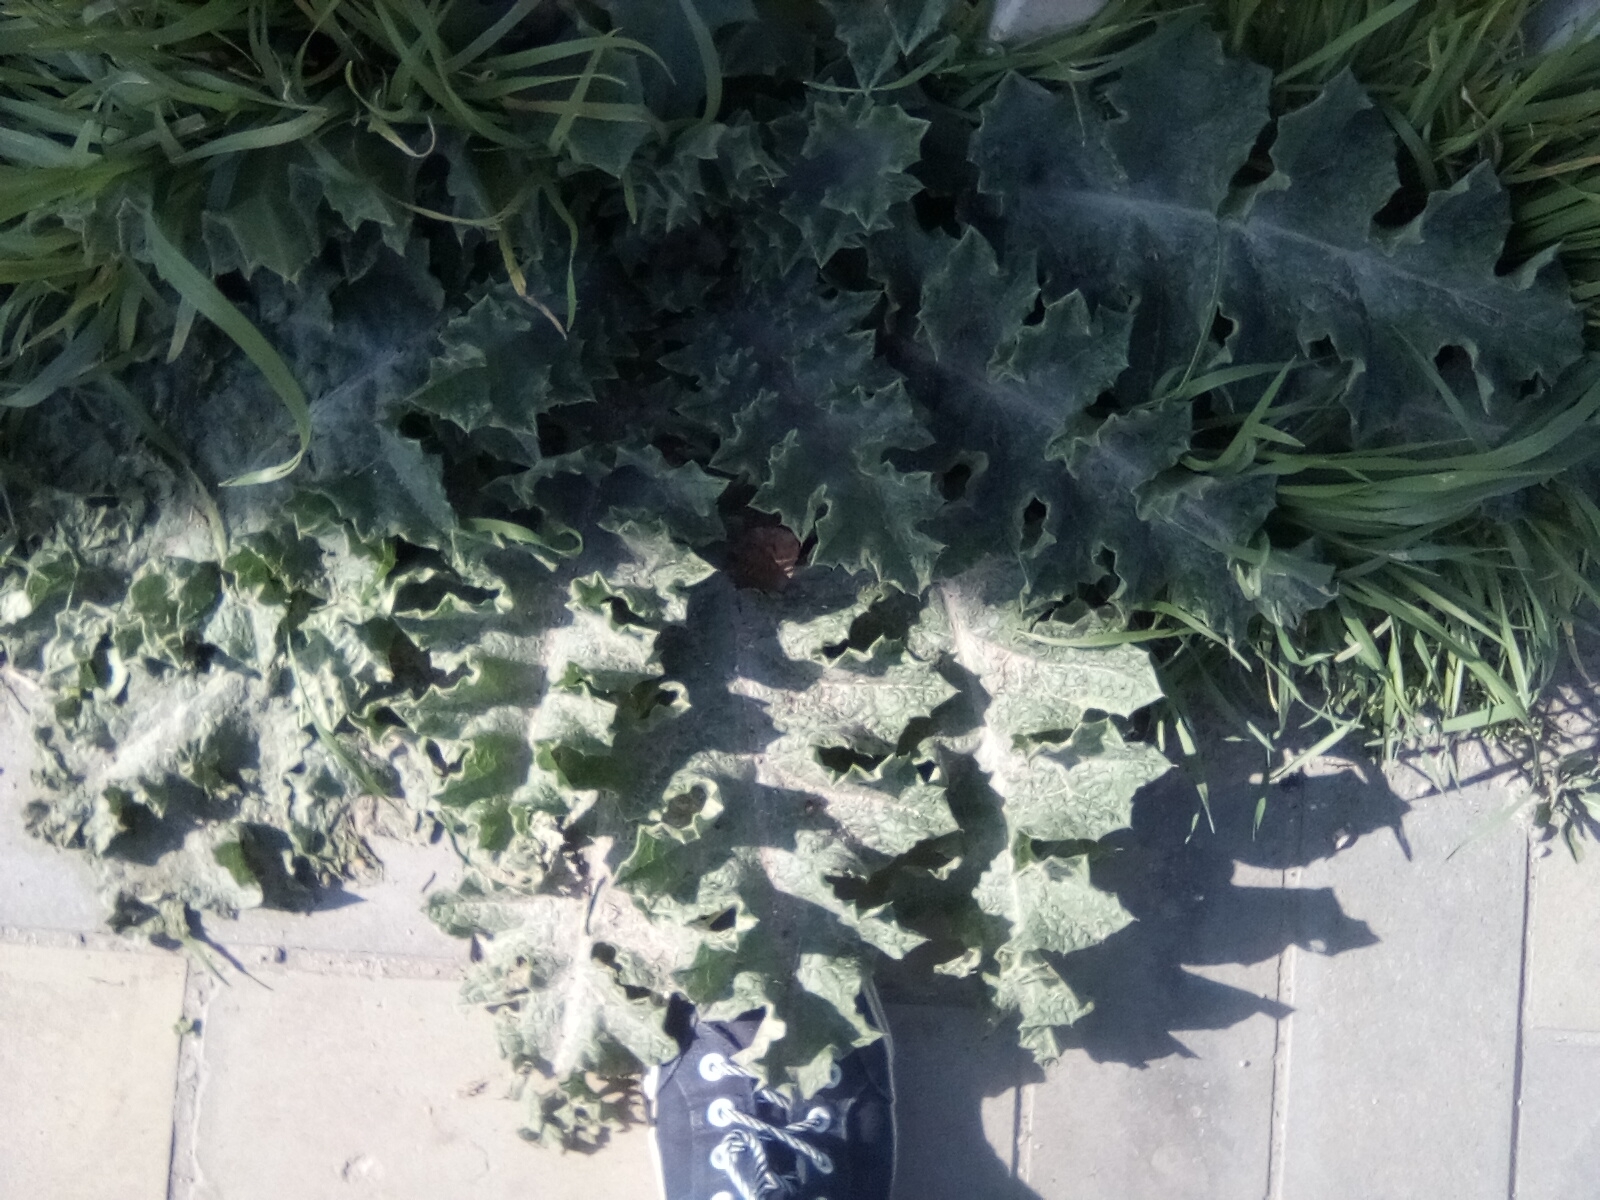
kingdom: Plantae
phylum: Tracheophyta
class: Magnoliopsida
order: Asterales
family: Asteraceae
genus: Onopordum
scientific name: Onopordum acanthium
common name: Scotch thistle
